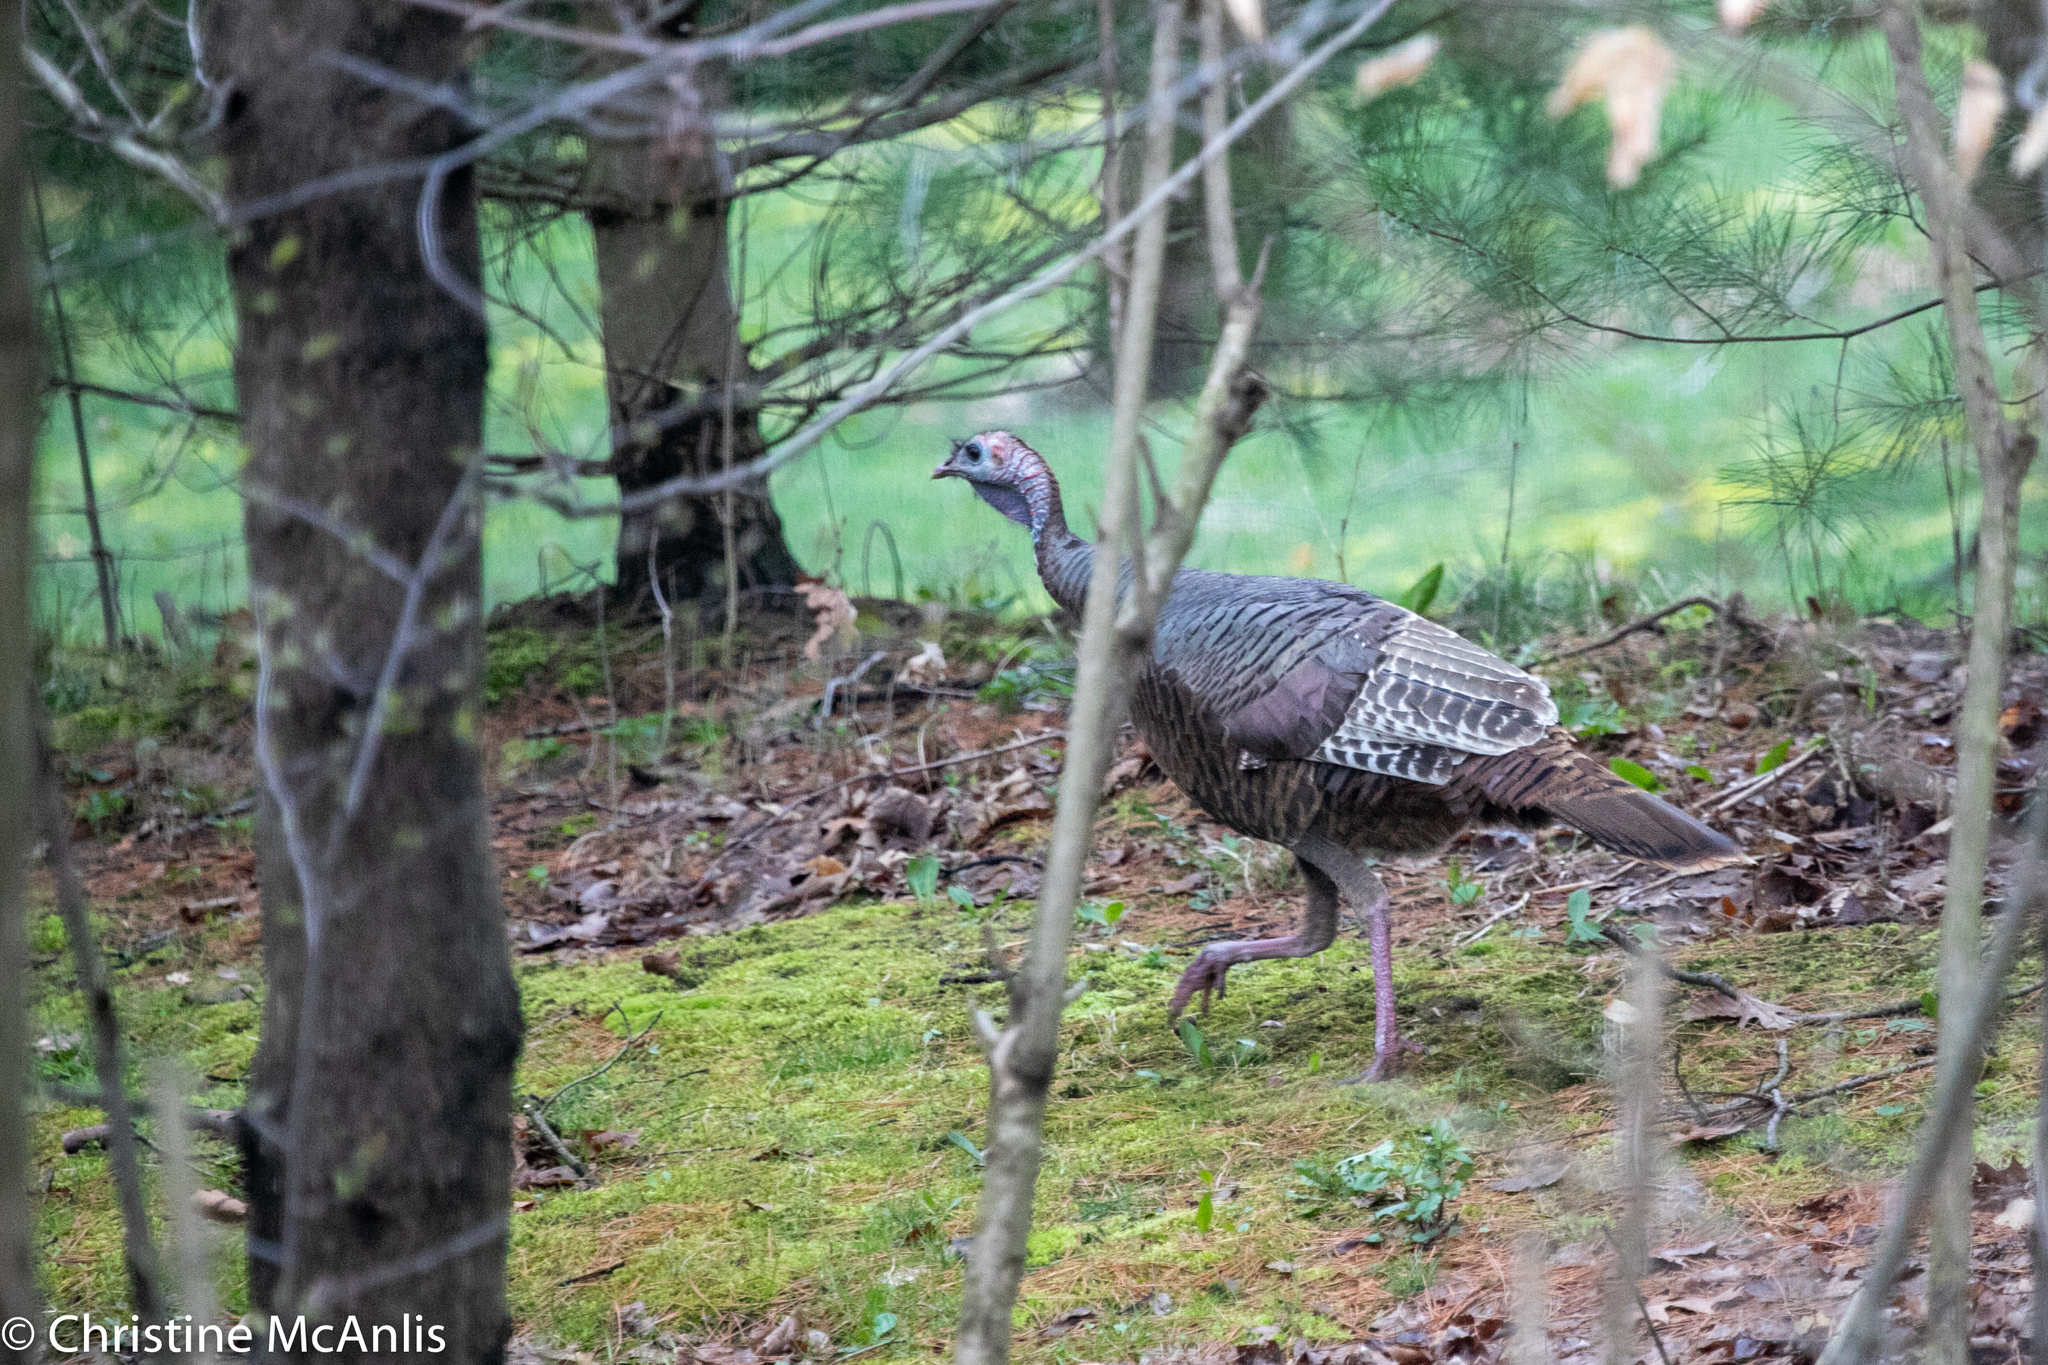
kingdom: Animalia
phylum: Chordata
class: Aves
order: Galliformes
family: Phasianidae
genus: Meleagris
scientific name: Meleagris gallopavo
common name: Wild turkey
